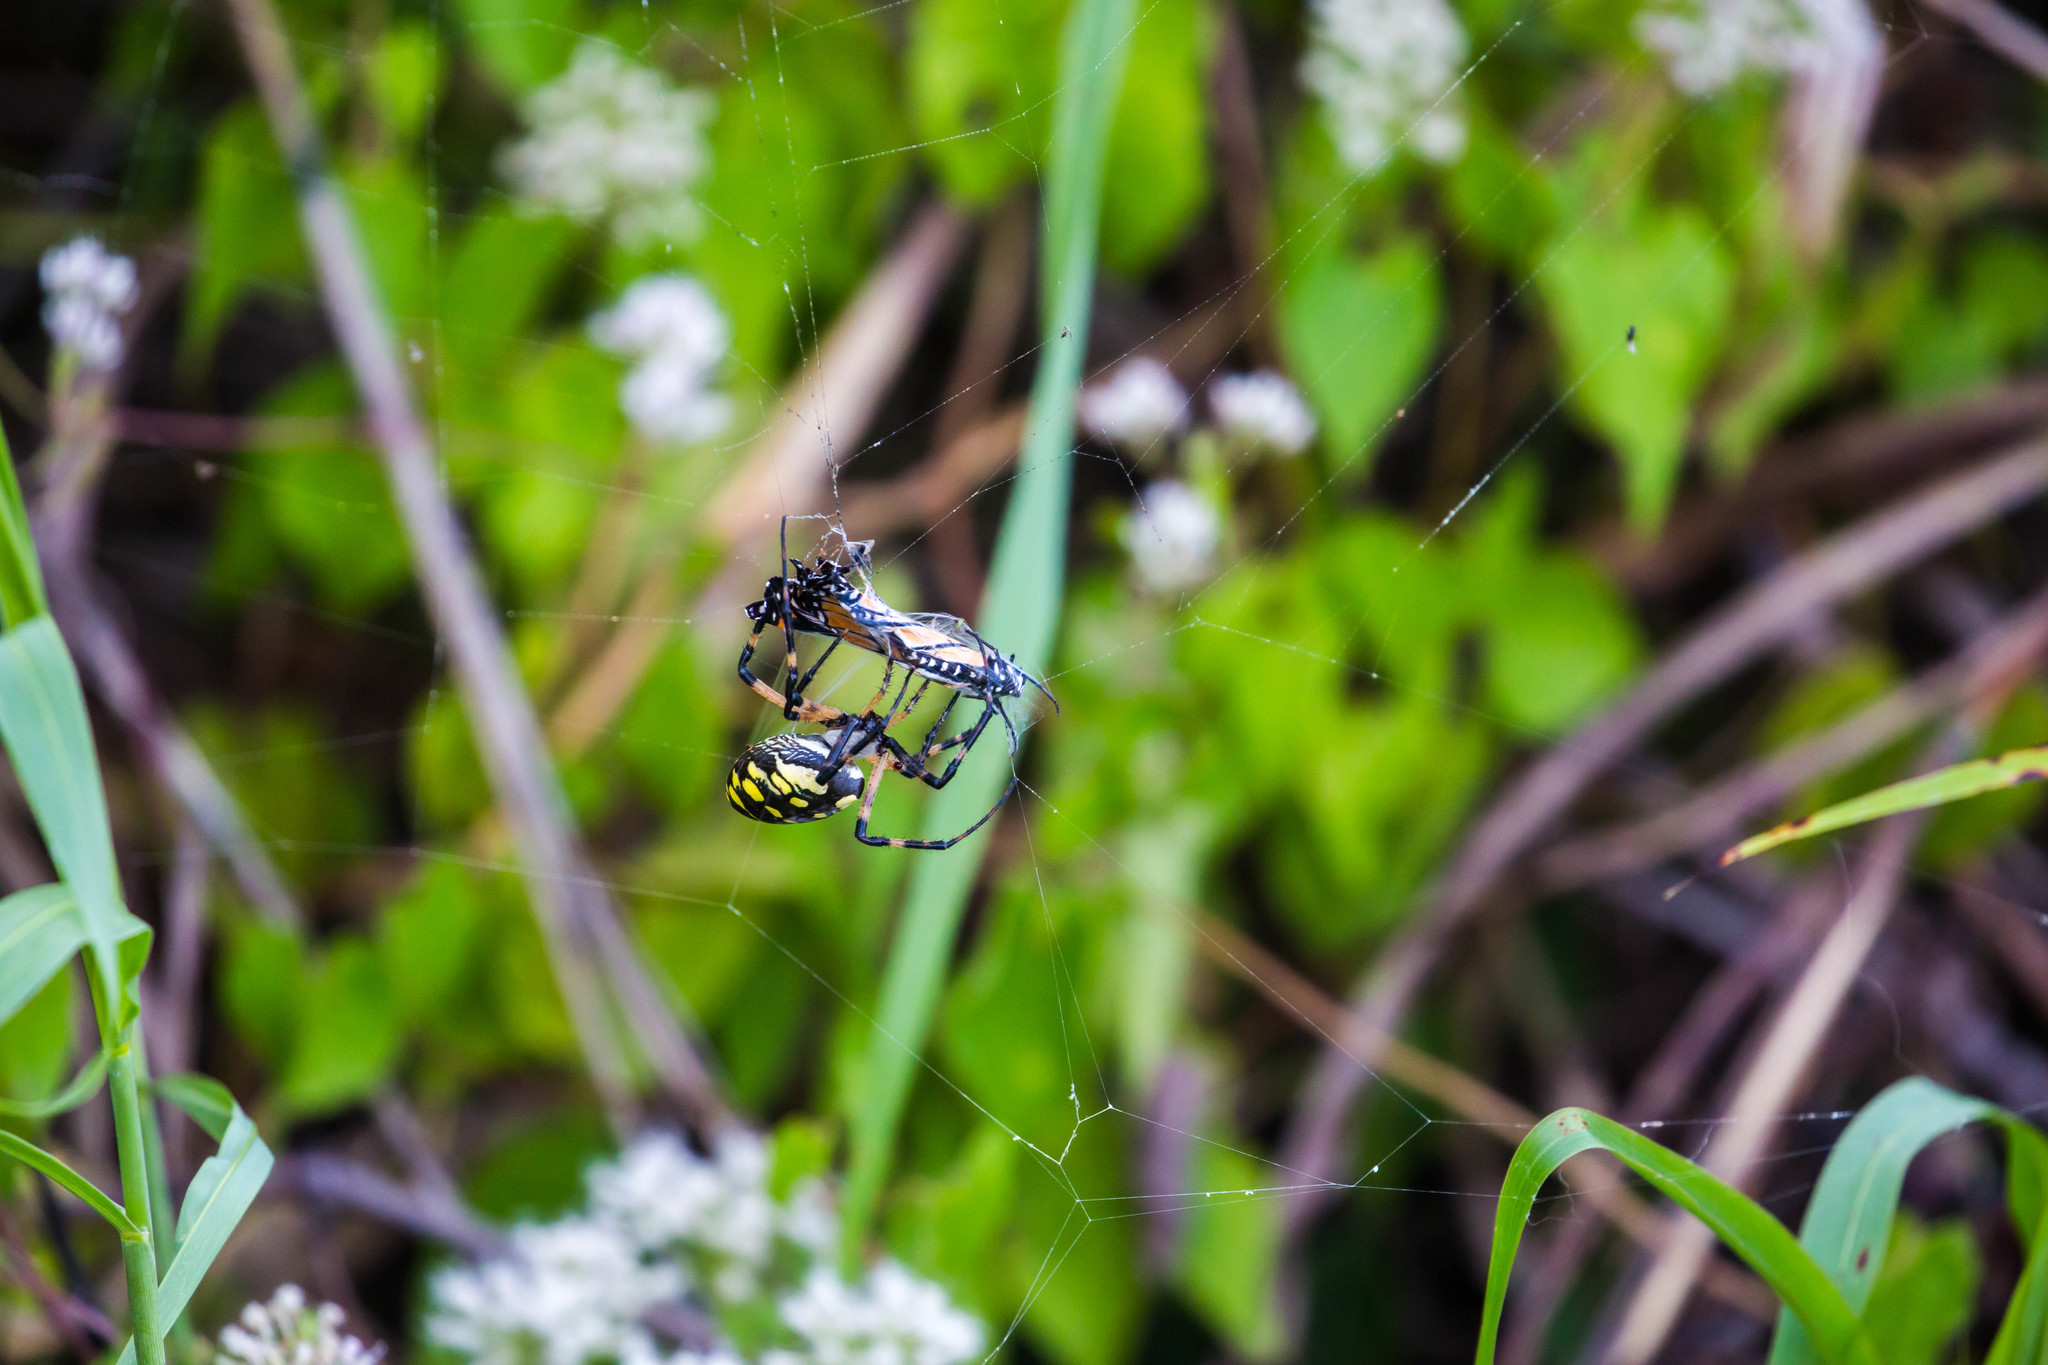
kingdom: Animalia
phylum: Arthropoda
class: Arachnida
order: Araneae
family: Araneidae
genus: Argiope
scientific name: Argiope aurantia
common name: Orb weavers
